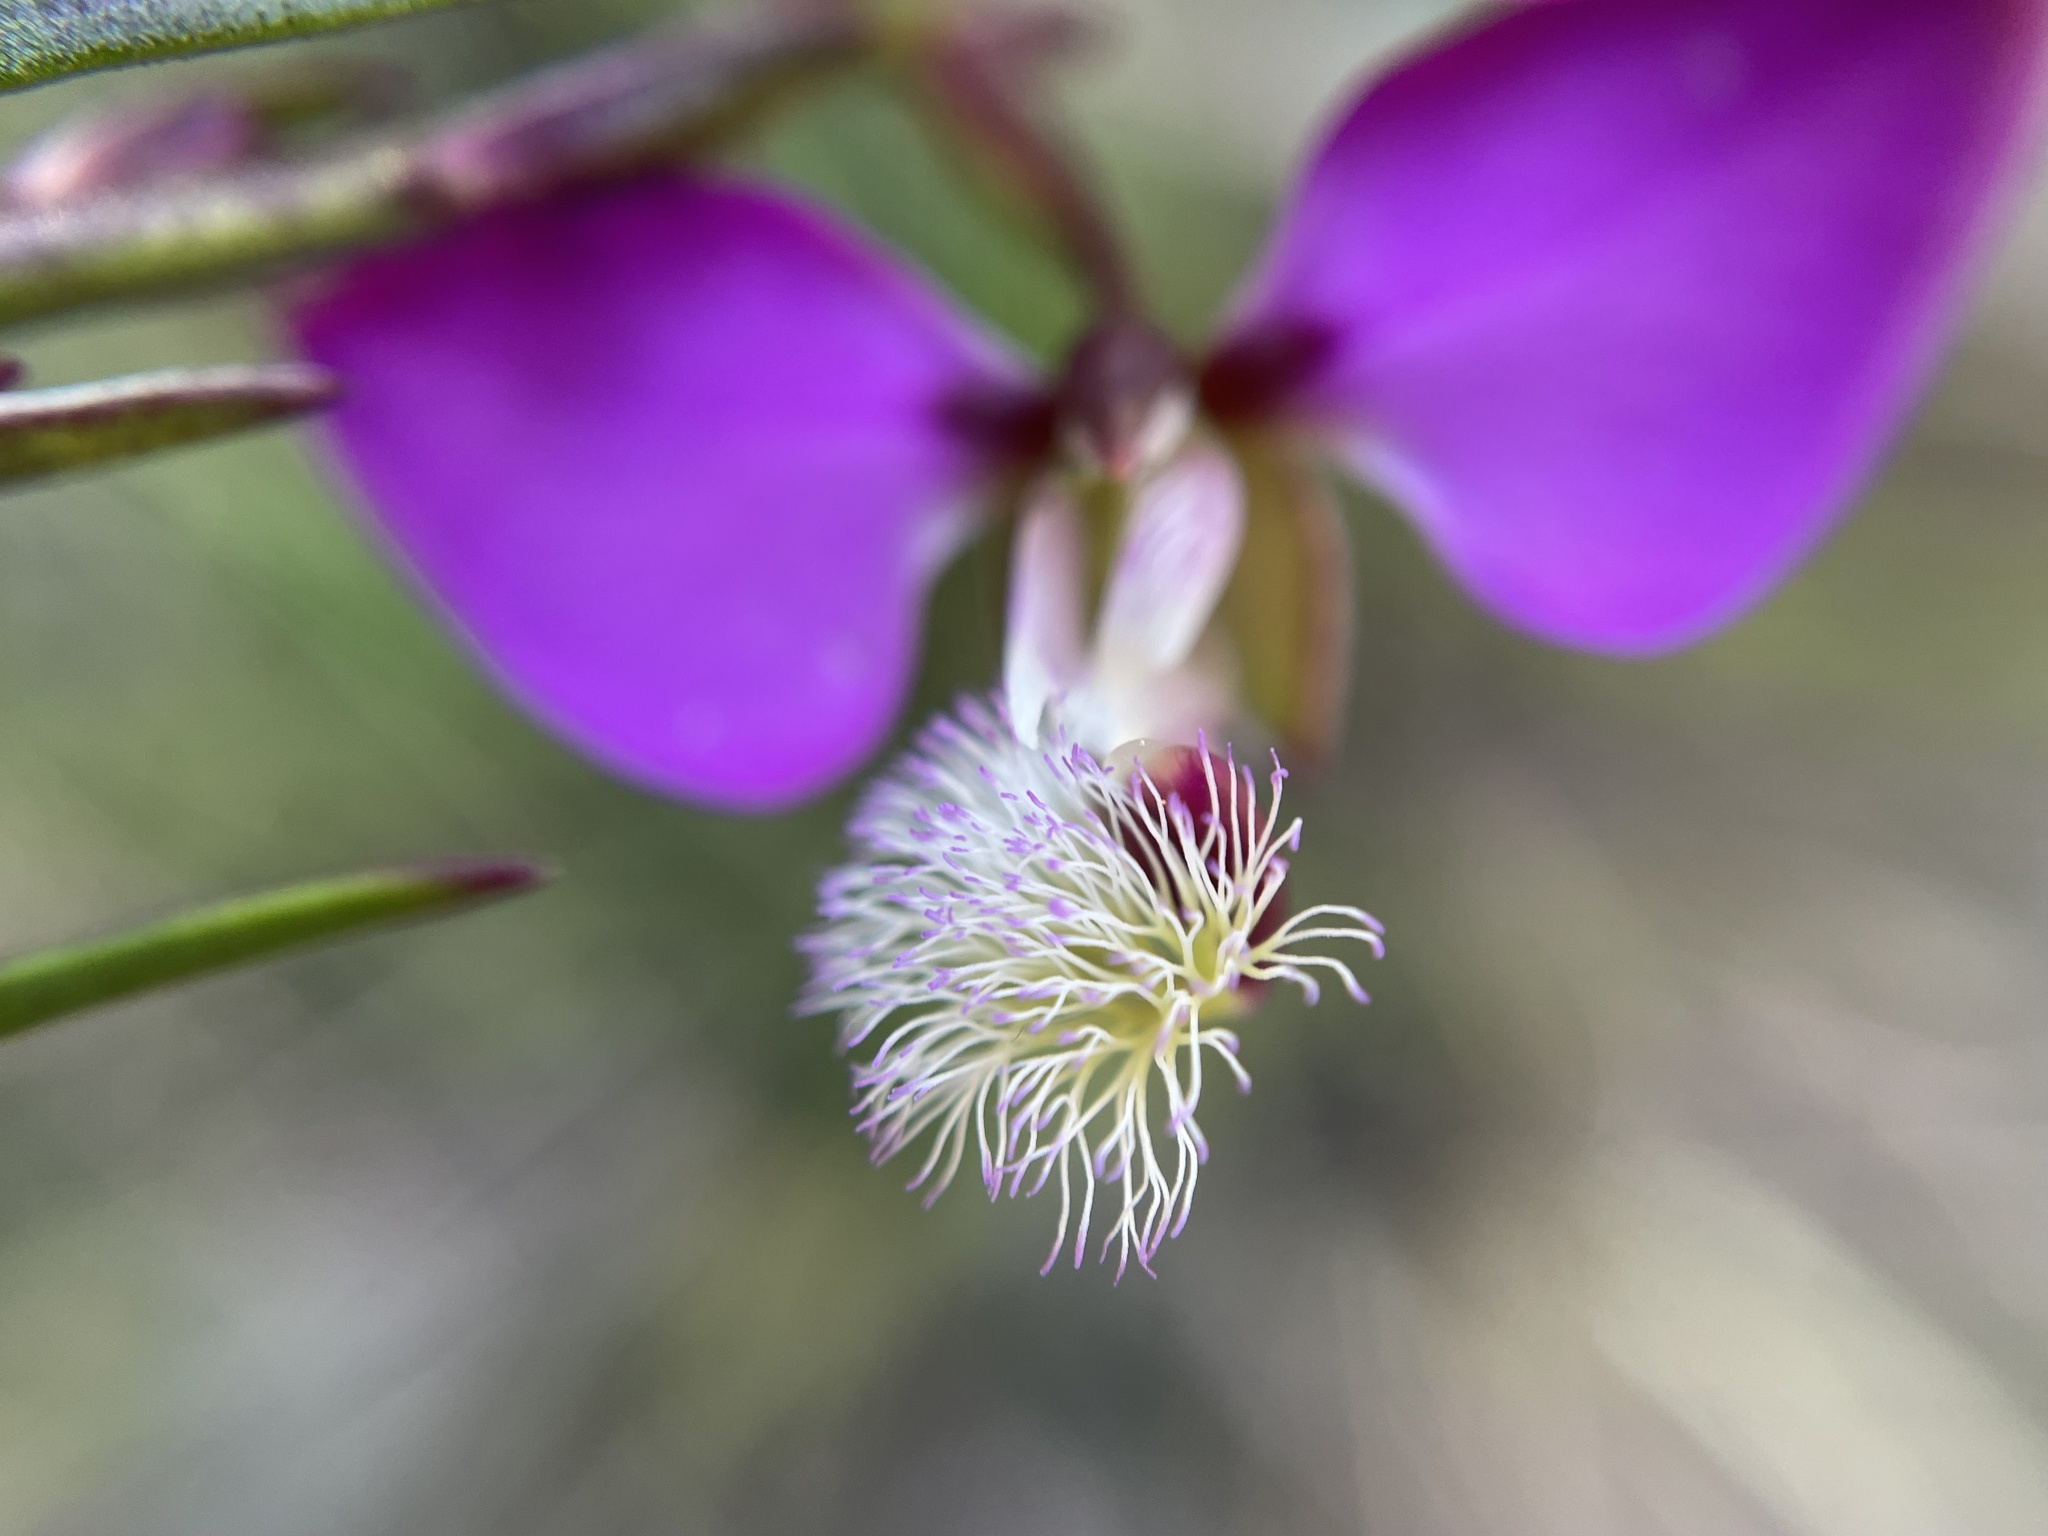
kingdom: Plantae
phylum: Tracheophyta
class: Magnoliopsida
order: Fabales
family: Polygalaceae
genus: Polygala
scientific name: Polygala bracteolata
